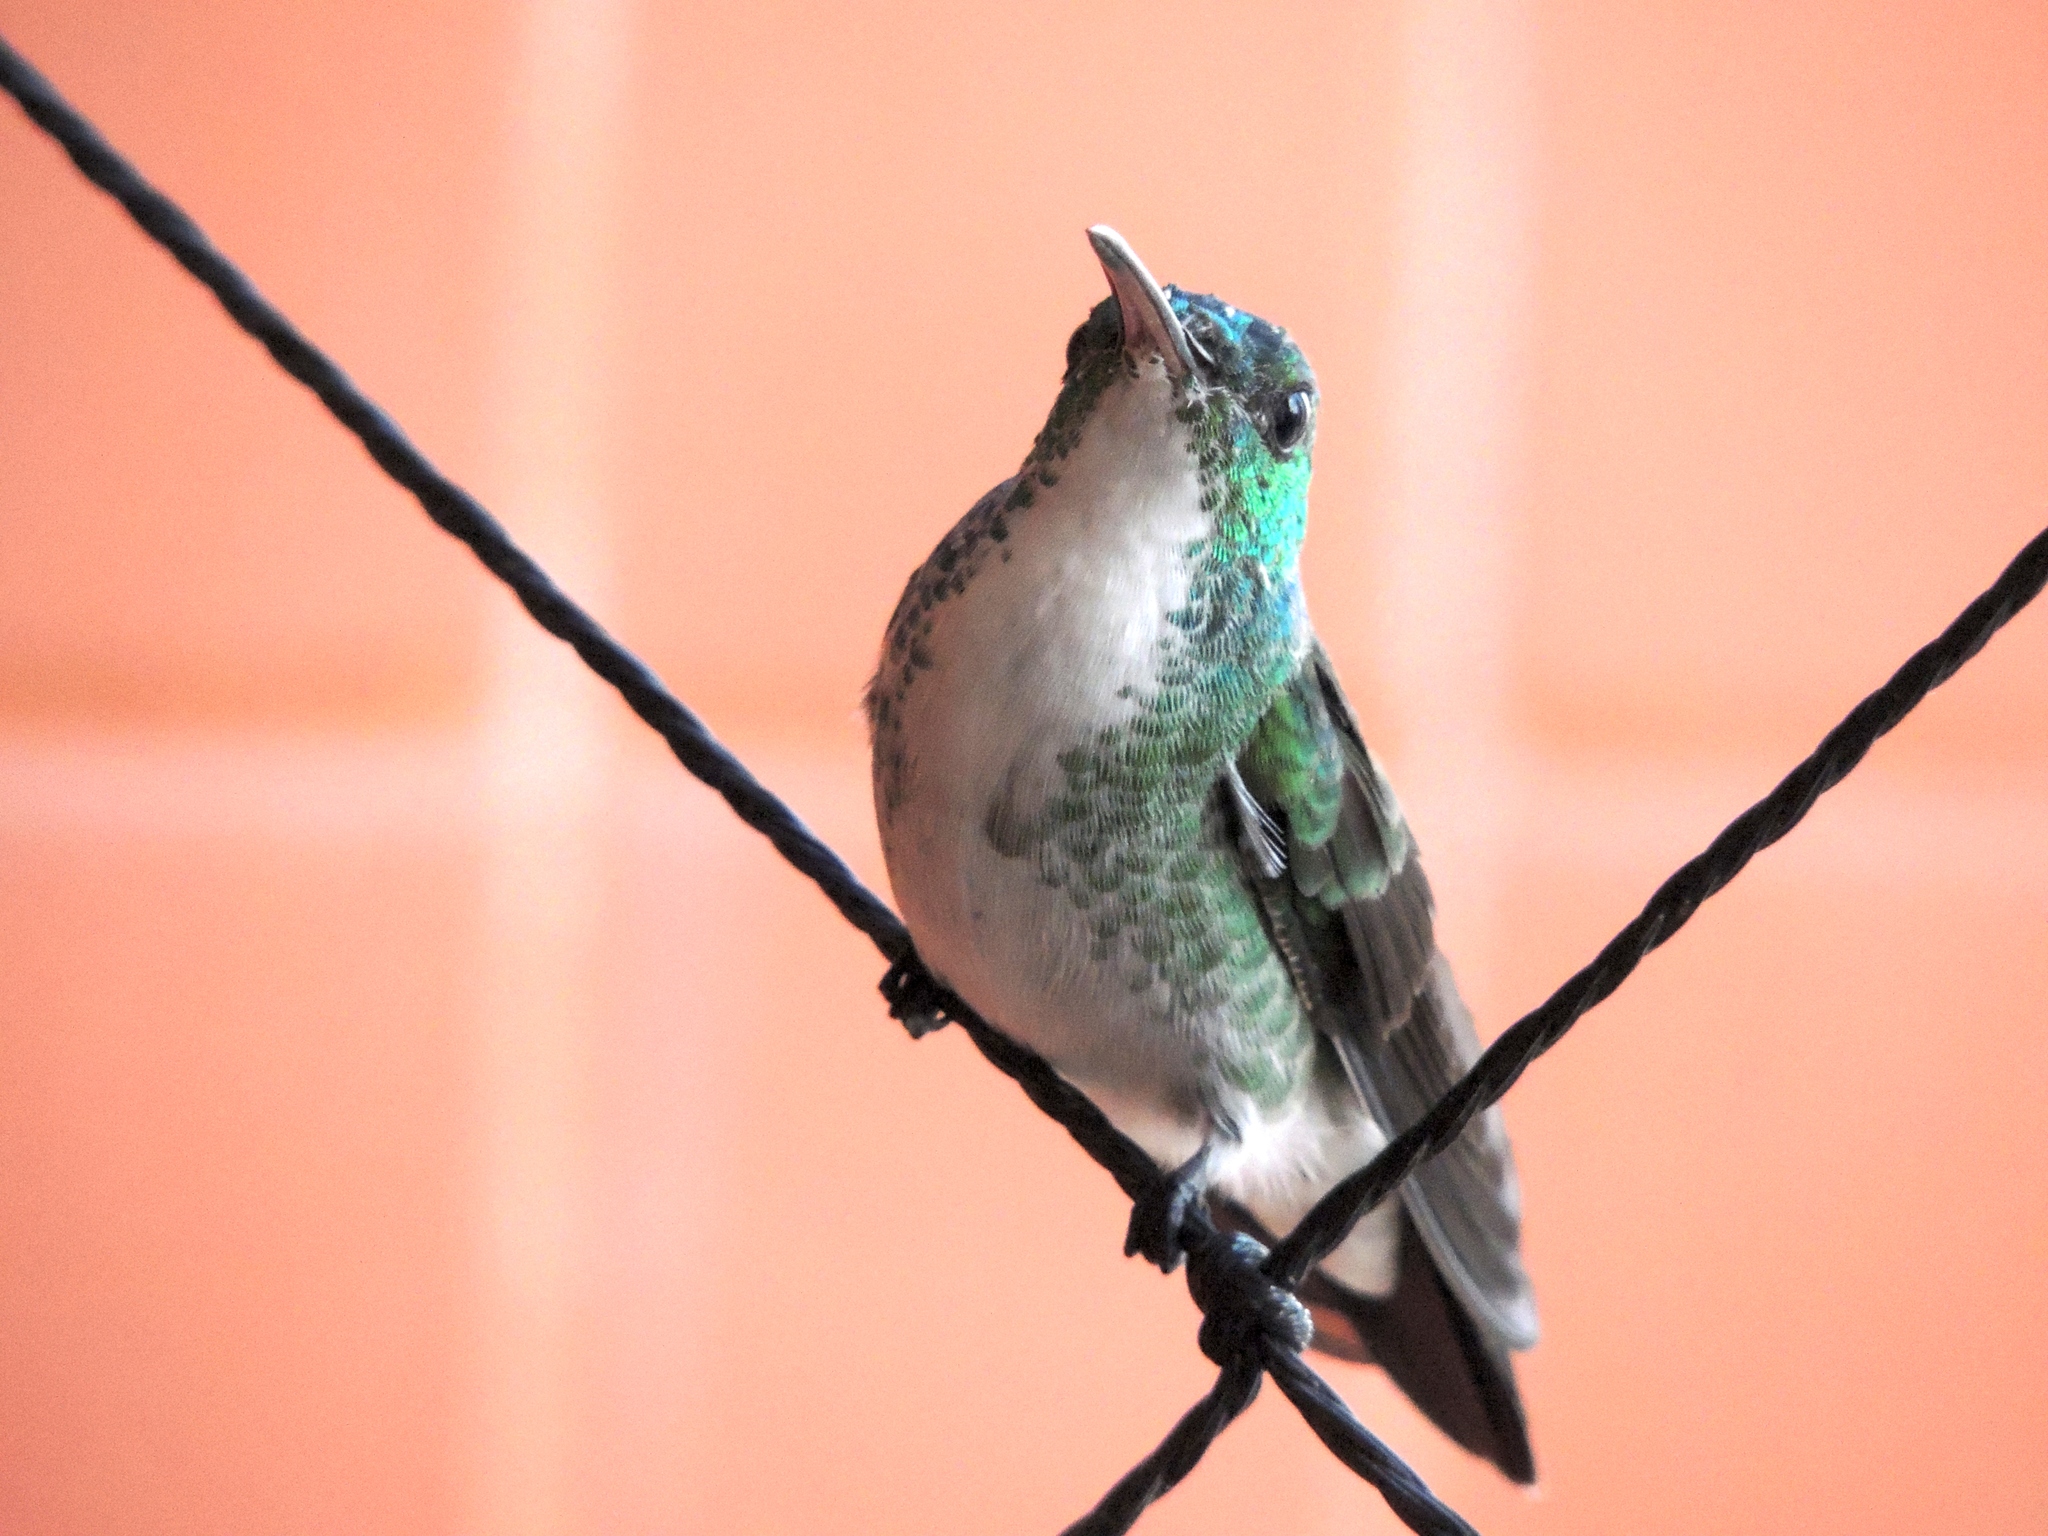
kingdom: Animalia
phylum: Chordata
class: Aves
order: Apodiformes
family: Trochilidae
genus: Chrysuronia
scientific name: Chrysuronia leucogaster
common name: Plain-bellied emerald
